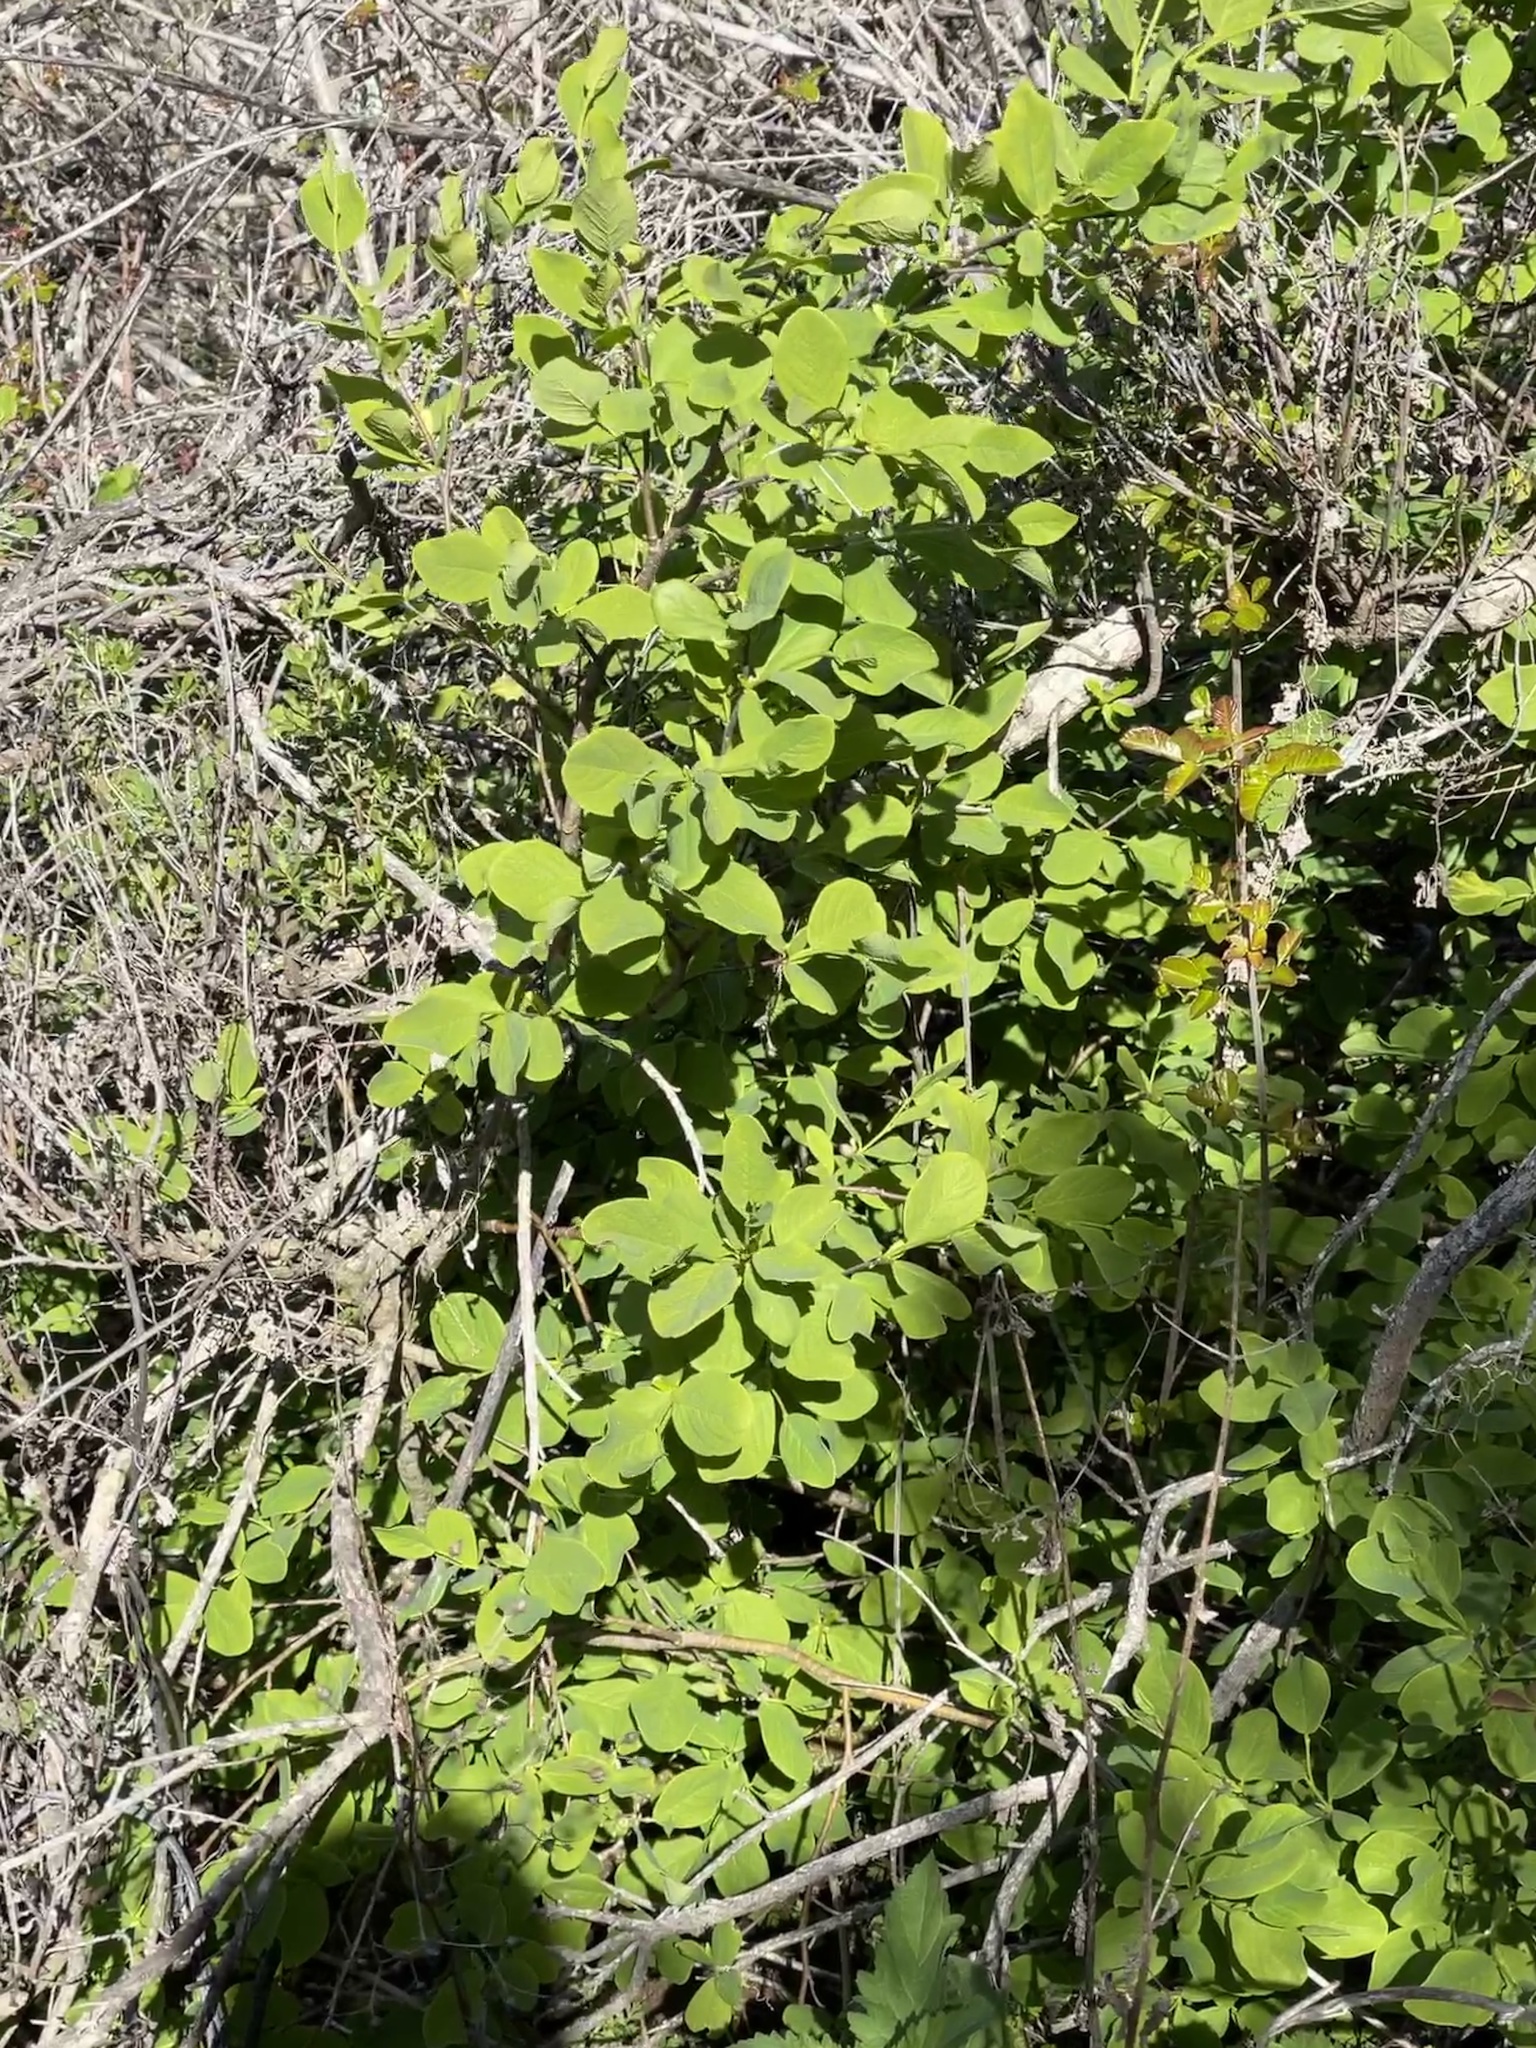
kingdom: Plantae
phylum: Tracheophyta
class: Magnoliopsida
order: Malvales
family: Thymelaeaceae
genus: Dirca
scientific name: Dirca occidentalis
